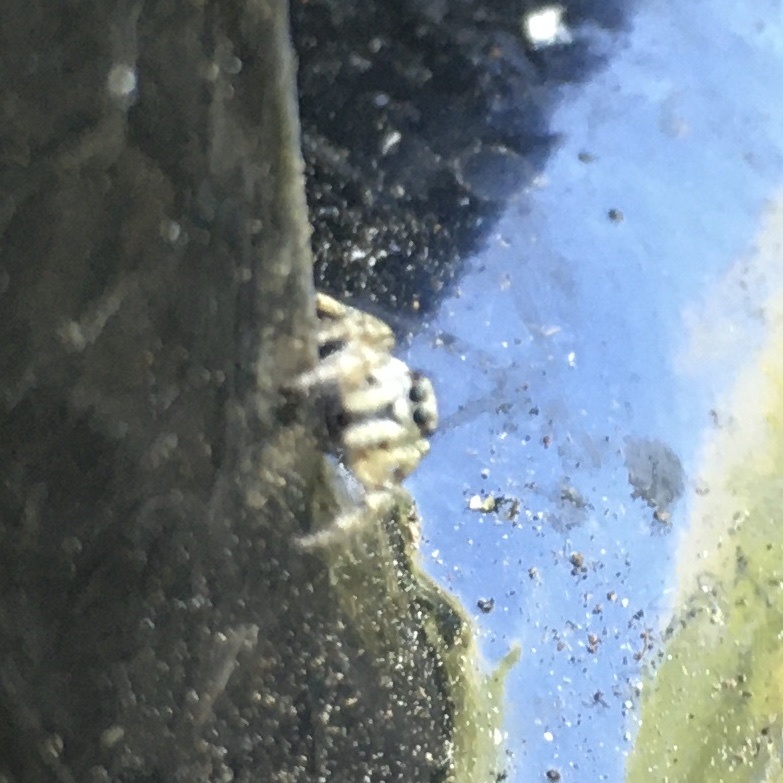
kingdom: Animalia
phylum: Arthropoda
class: Arachnida
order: Araneae
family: Salticidae
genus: Salticus
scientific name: Salticus scenicus
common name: Zebra jumper
